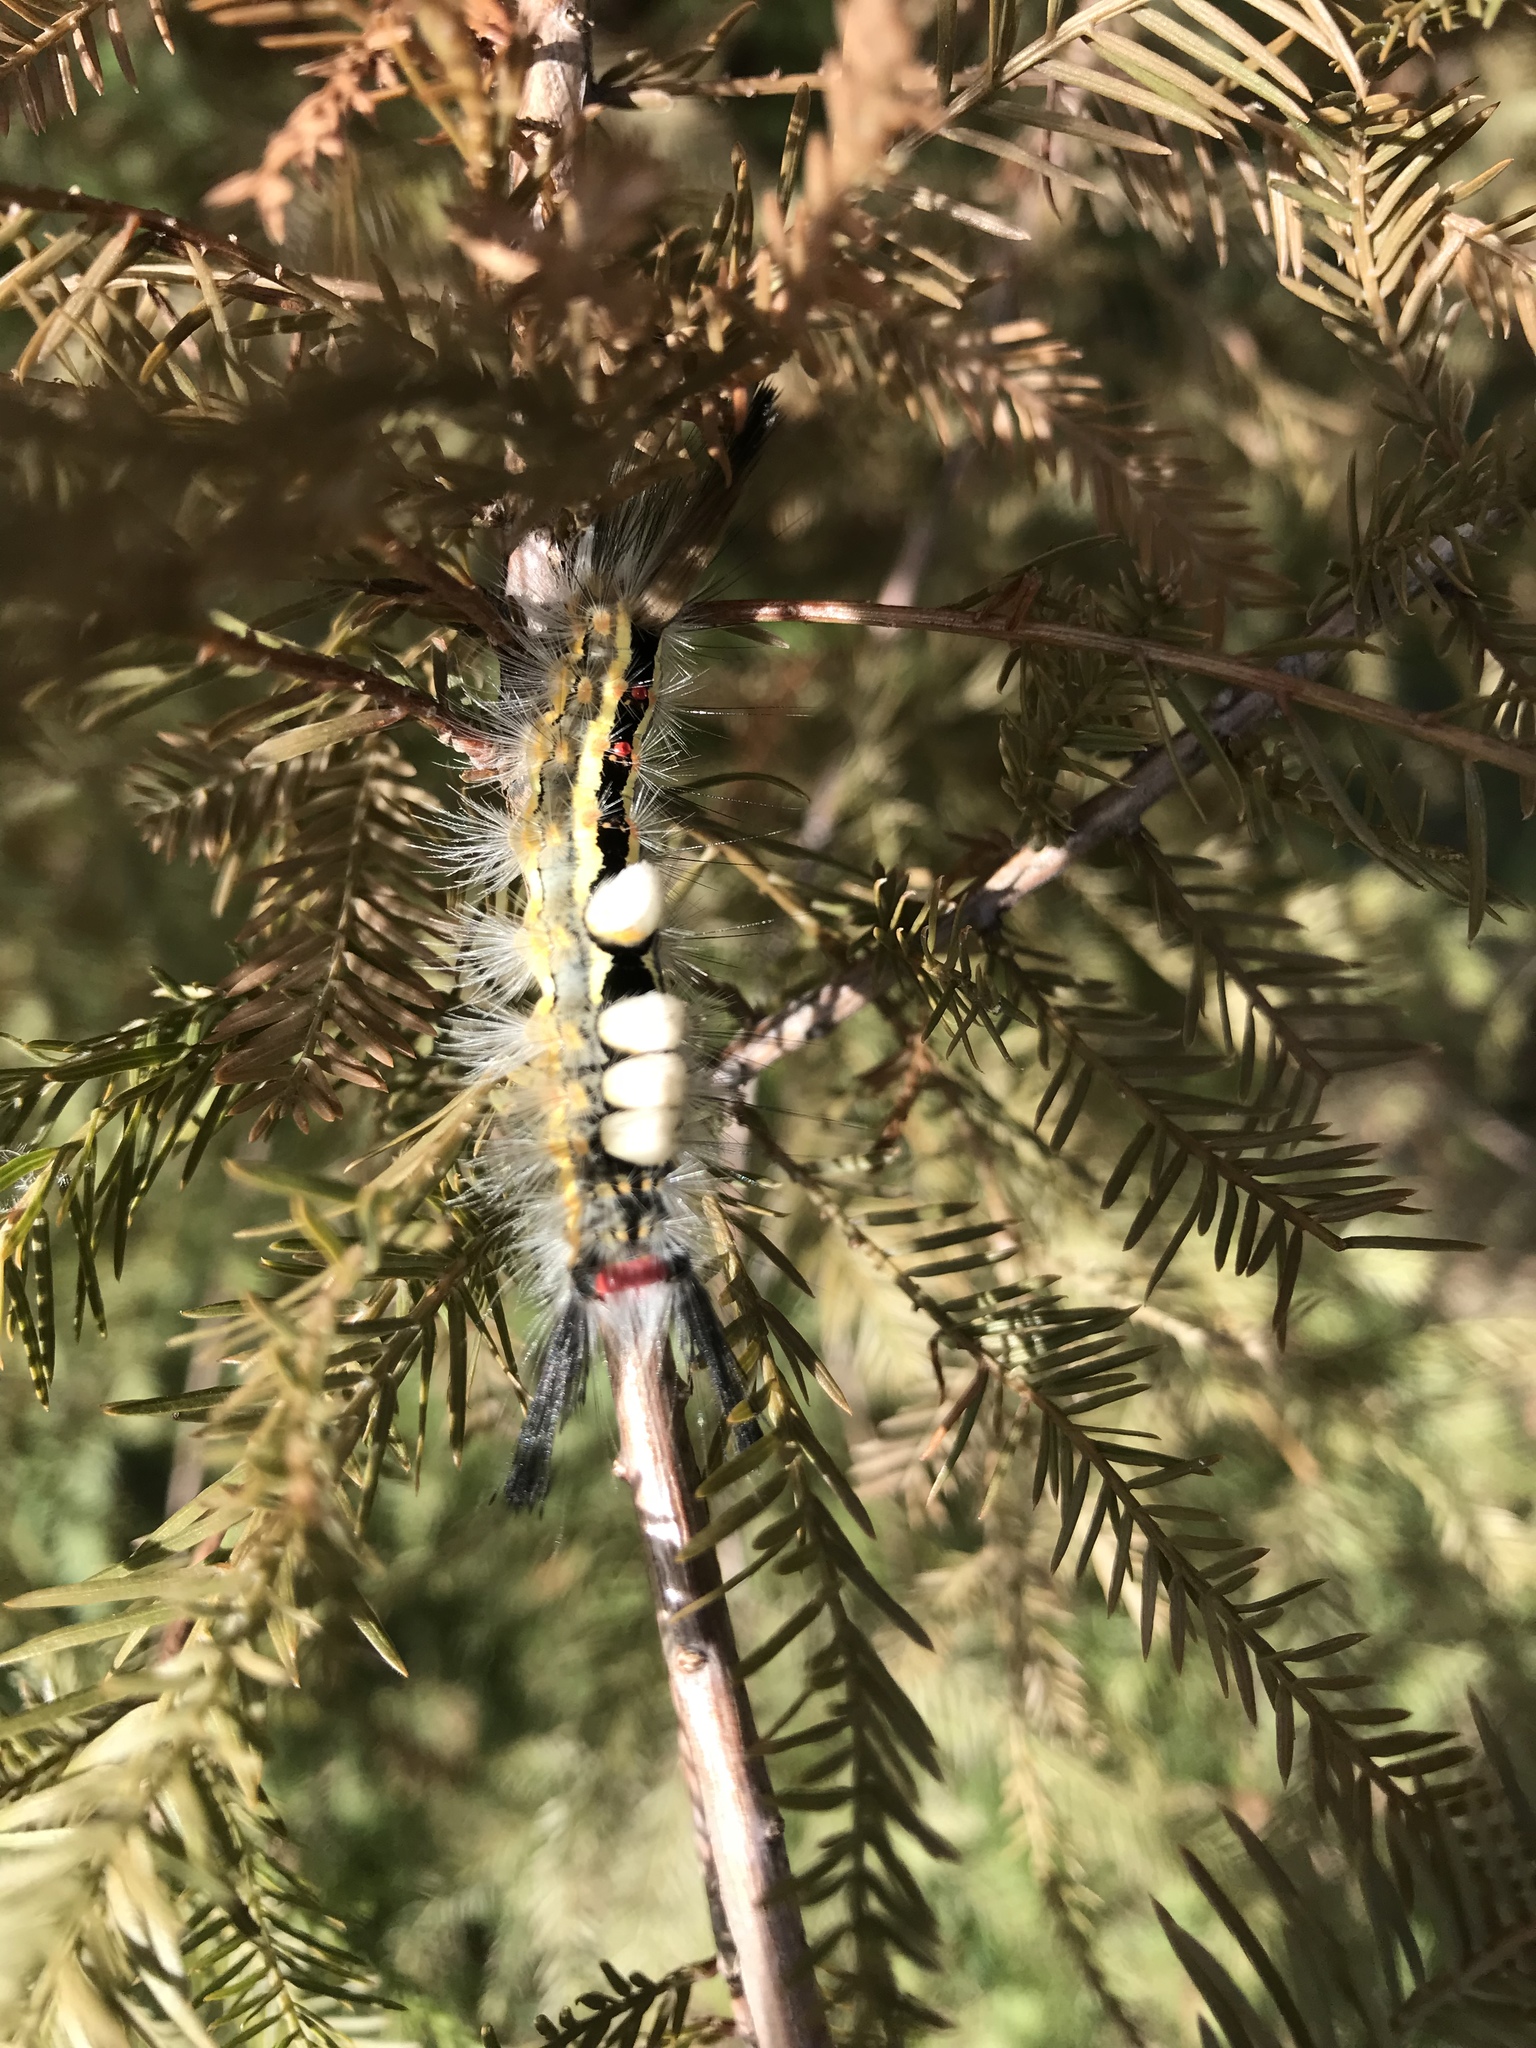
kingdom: Animalia
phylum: Arthropoda
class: Insecta
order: Lepidoptera
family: Erebidae
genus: Orgyia
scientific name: Orgyia leucostigma
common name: White-marked tussock moth
